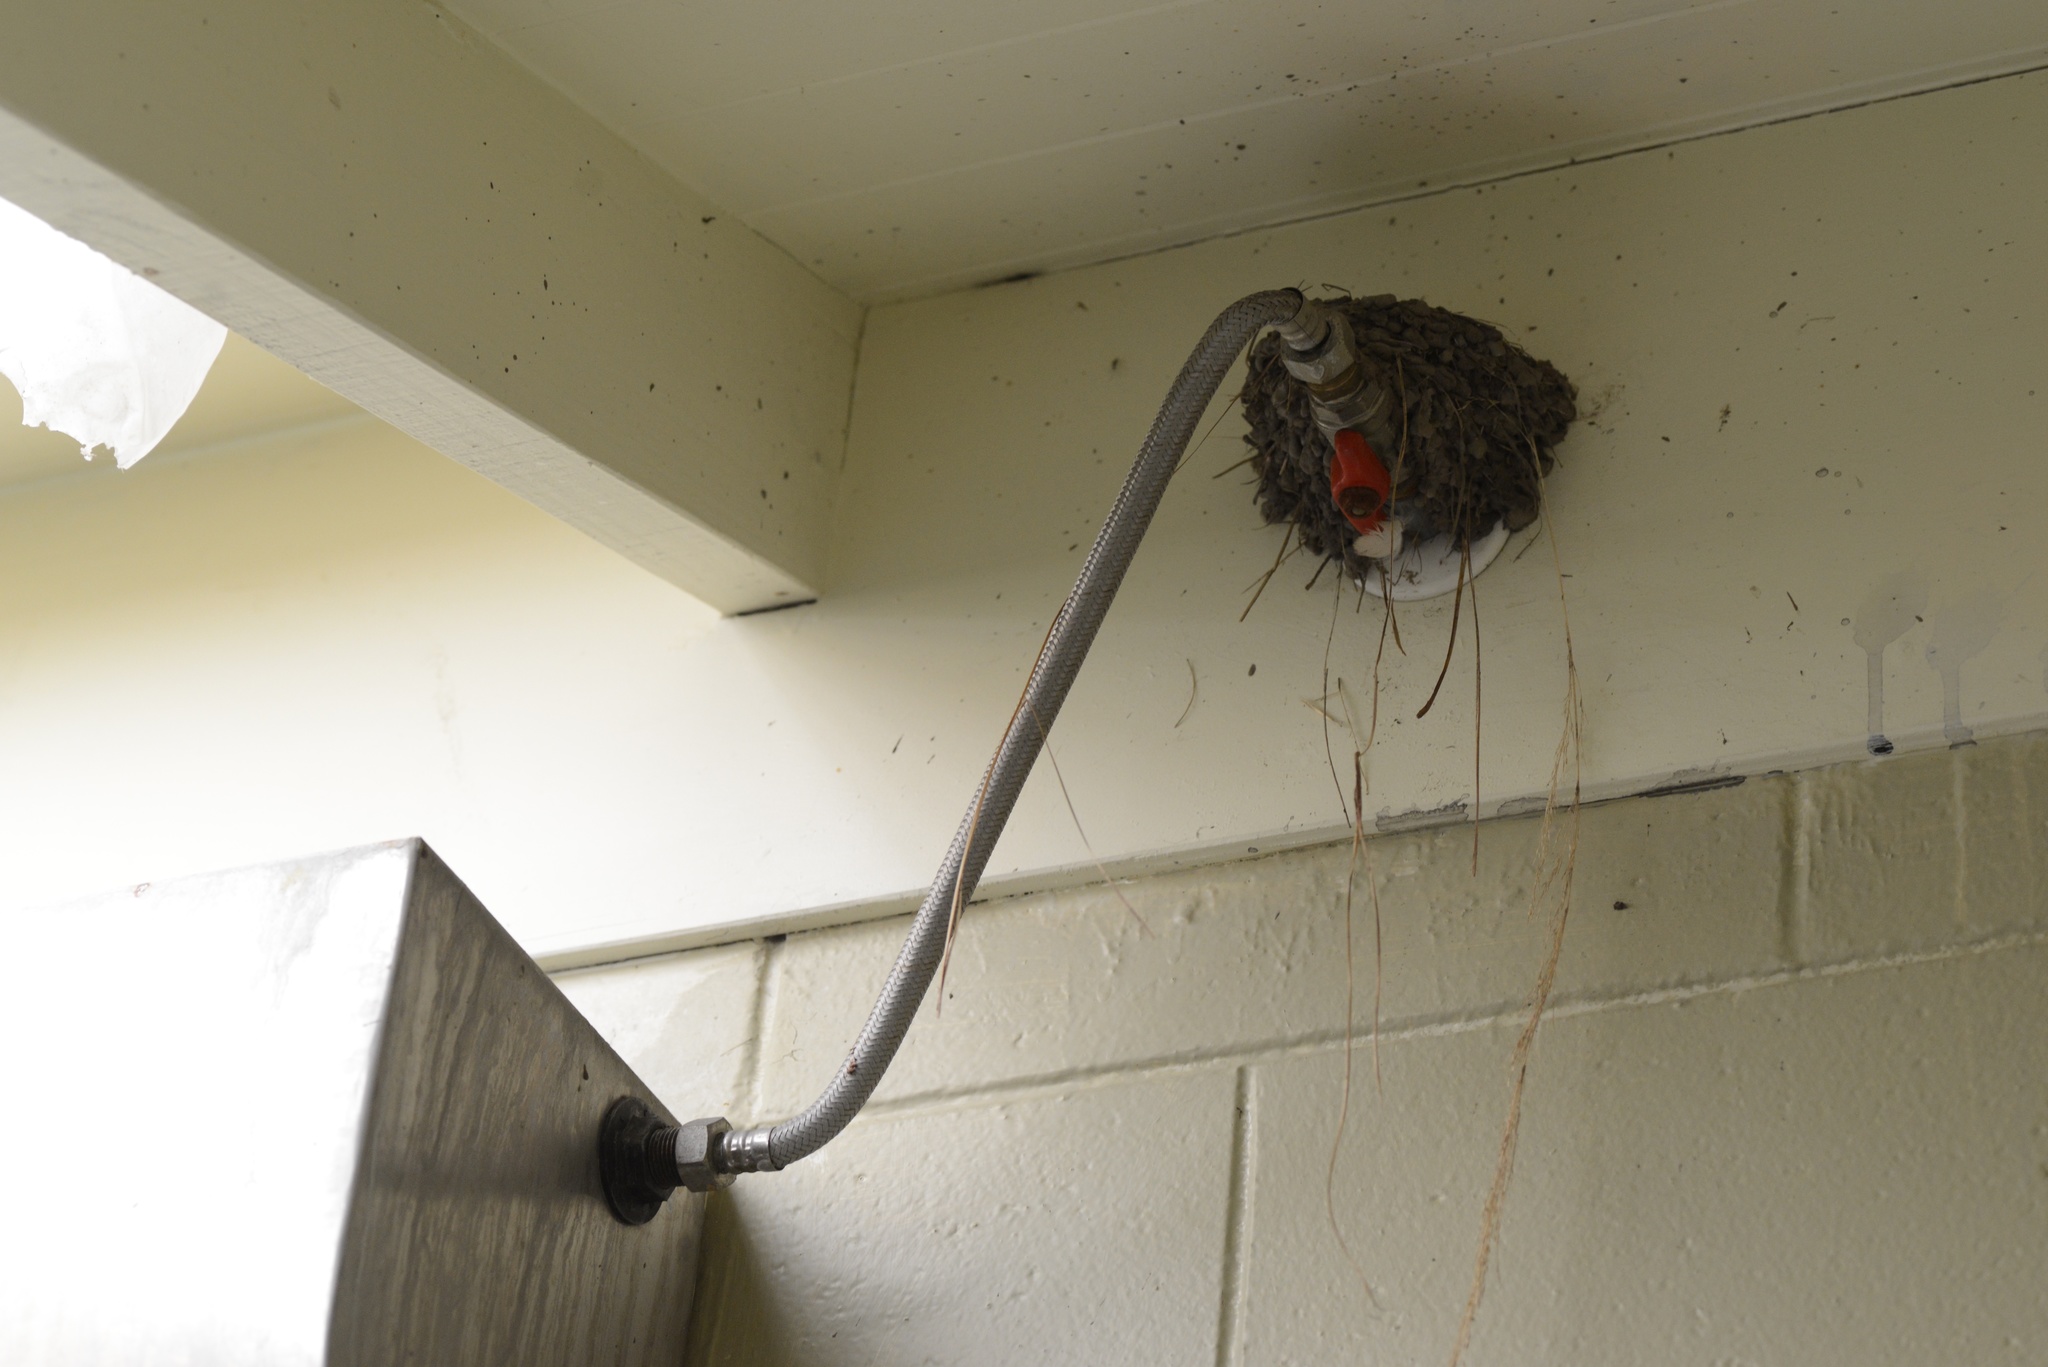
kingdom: Animalia
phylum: Chordata
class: Aves
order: Passeriformes
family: Hirundinidae
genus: Hirundo
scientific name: Hirundo neoxena
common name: Welcome swallow
